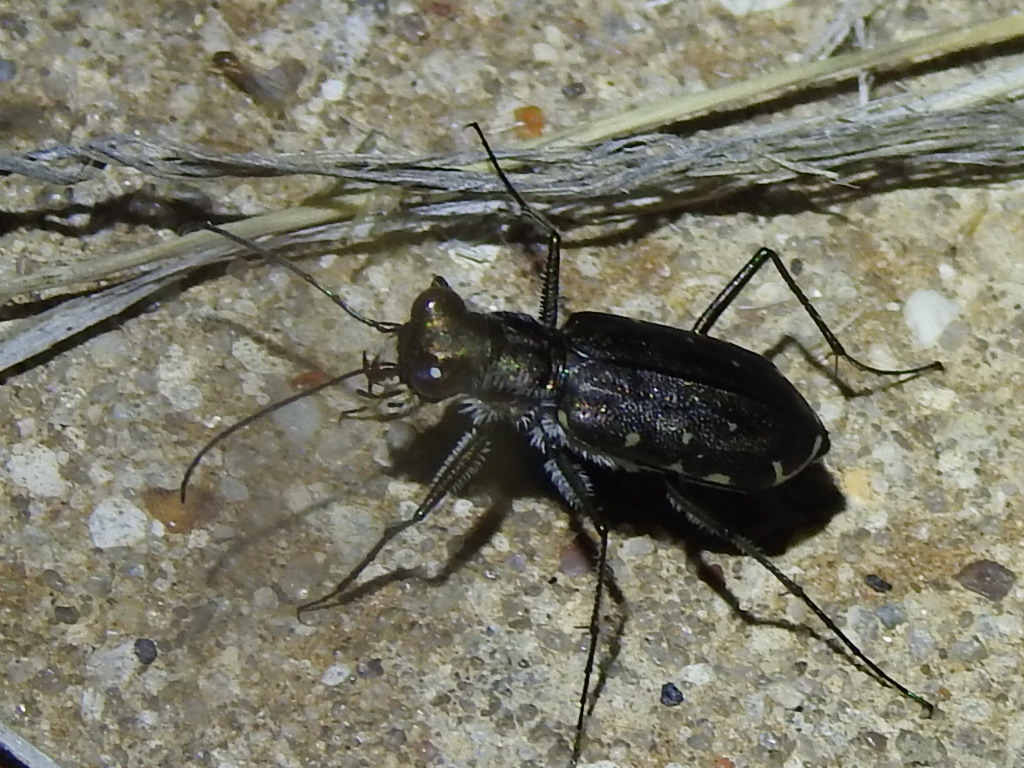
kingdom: Animalia
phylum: Arthropoda
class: Insecta
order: Coleoptera
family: Carabidae
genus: Cicindela
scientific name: Cicindela punctulata
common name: Punctured tiger beetle
